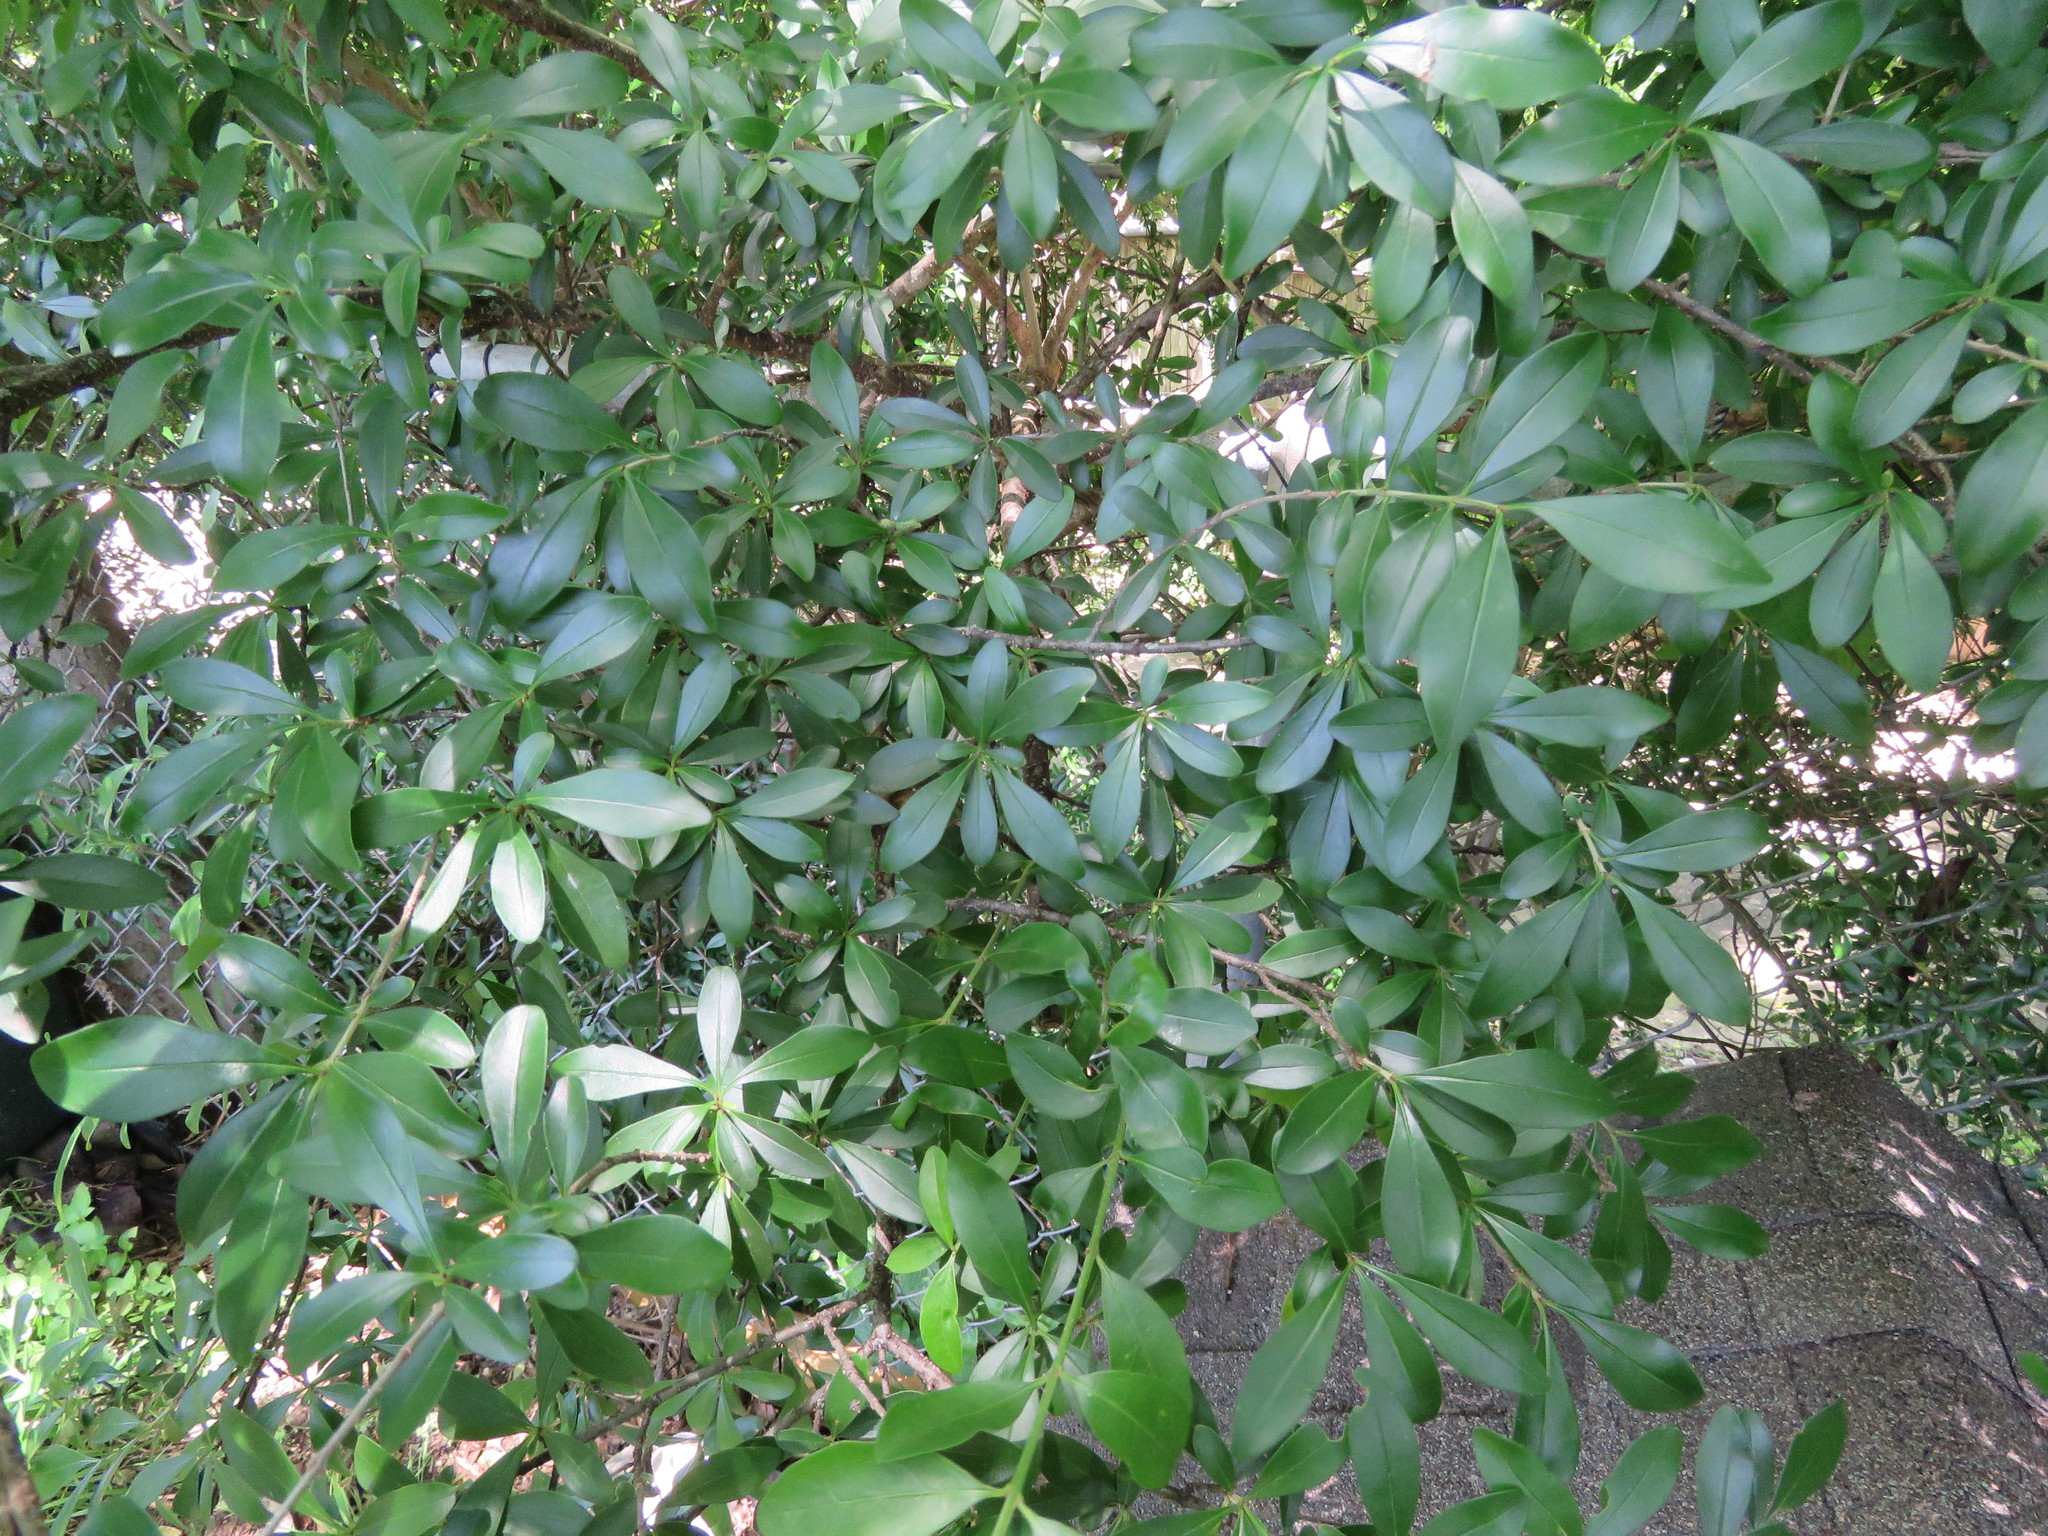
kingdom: Plantae
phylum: Tracheophyta
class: Magnoliopsida
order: Lamiales
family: Oleaceae
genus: Ligustrum
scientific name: Ligustrum quihoui
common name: Waxyleaf privet
